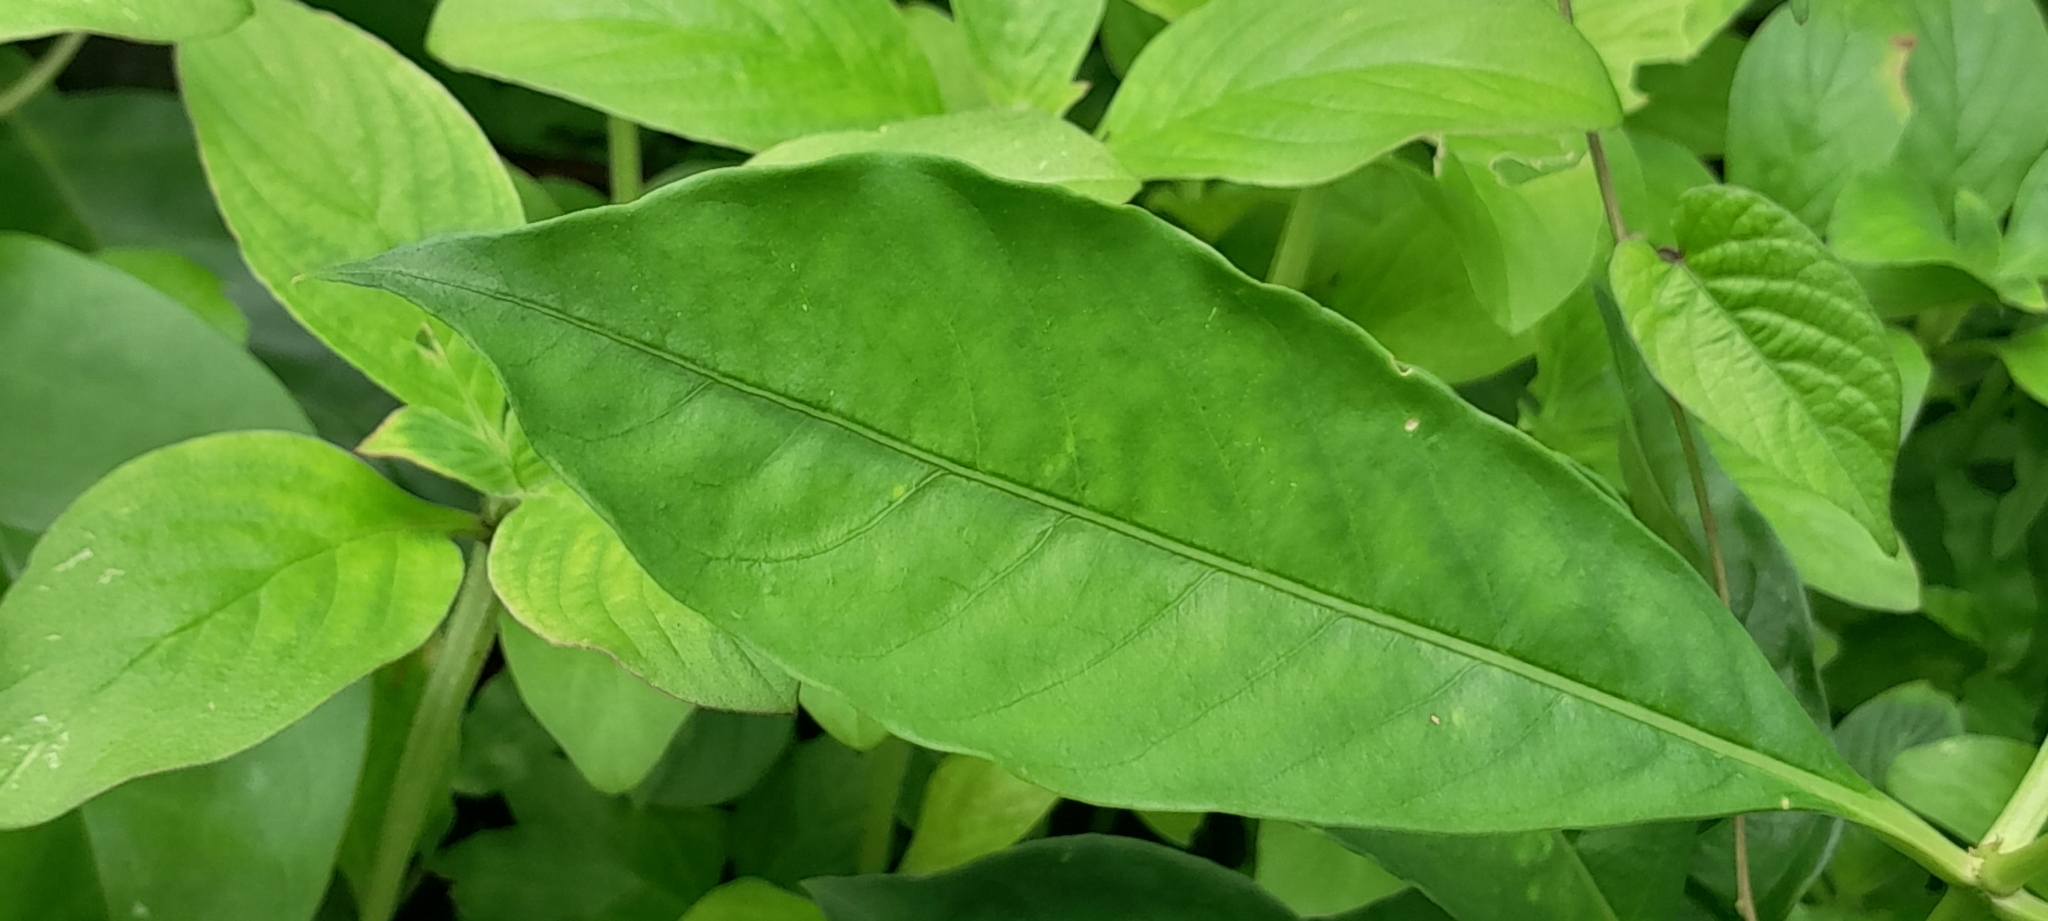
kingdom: Plantae
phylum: Tracheophyta
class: Magnoliopsida
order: Gentianales
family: Apocynaceae
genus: Rauvolfia
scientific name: Rauvolfia serpentina
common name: Ajmaline
